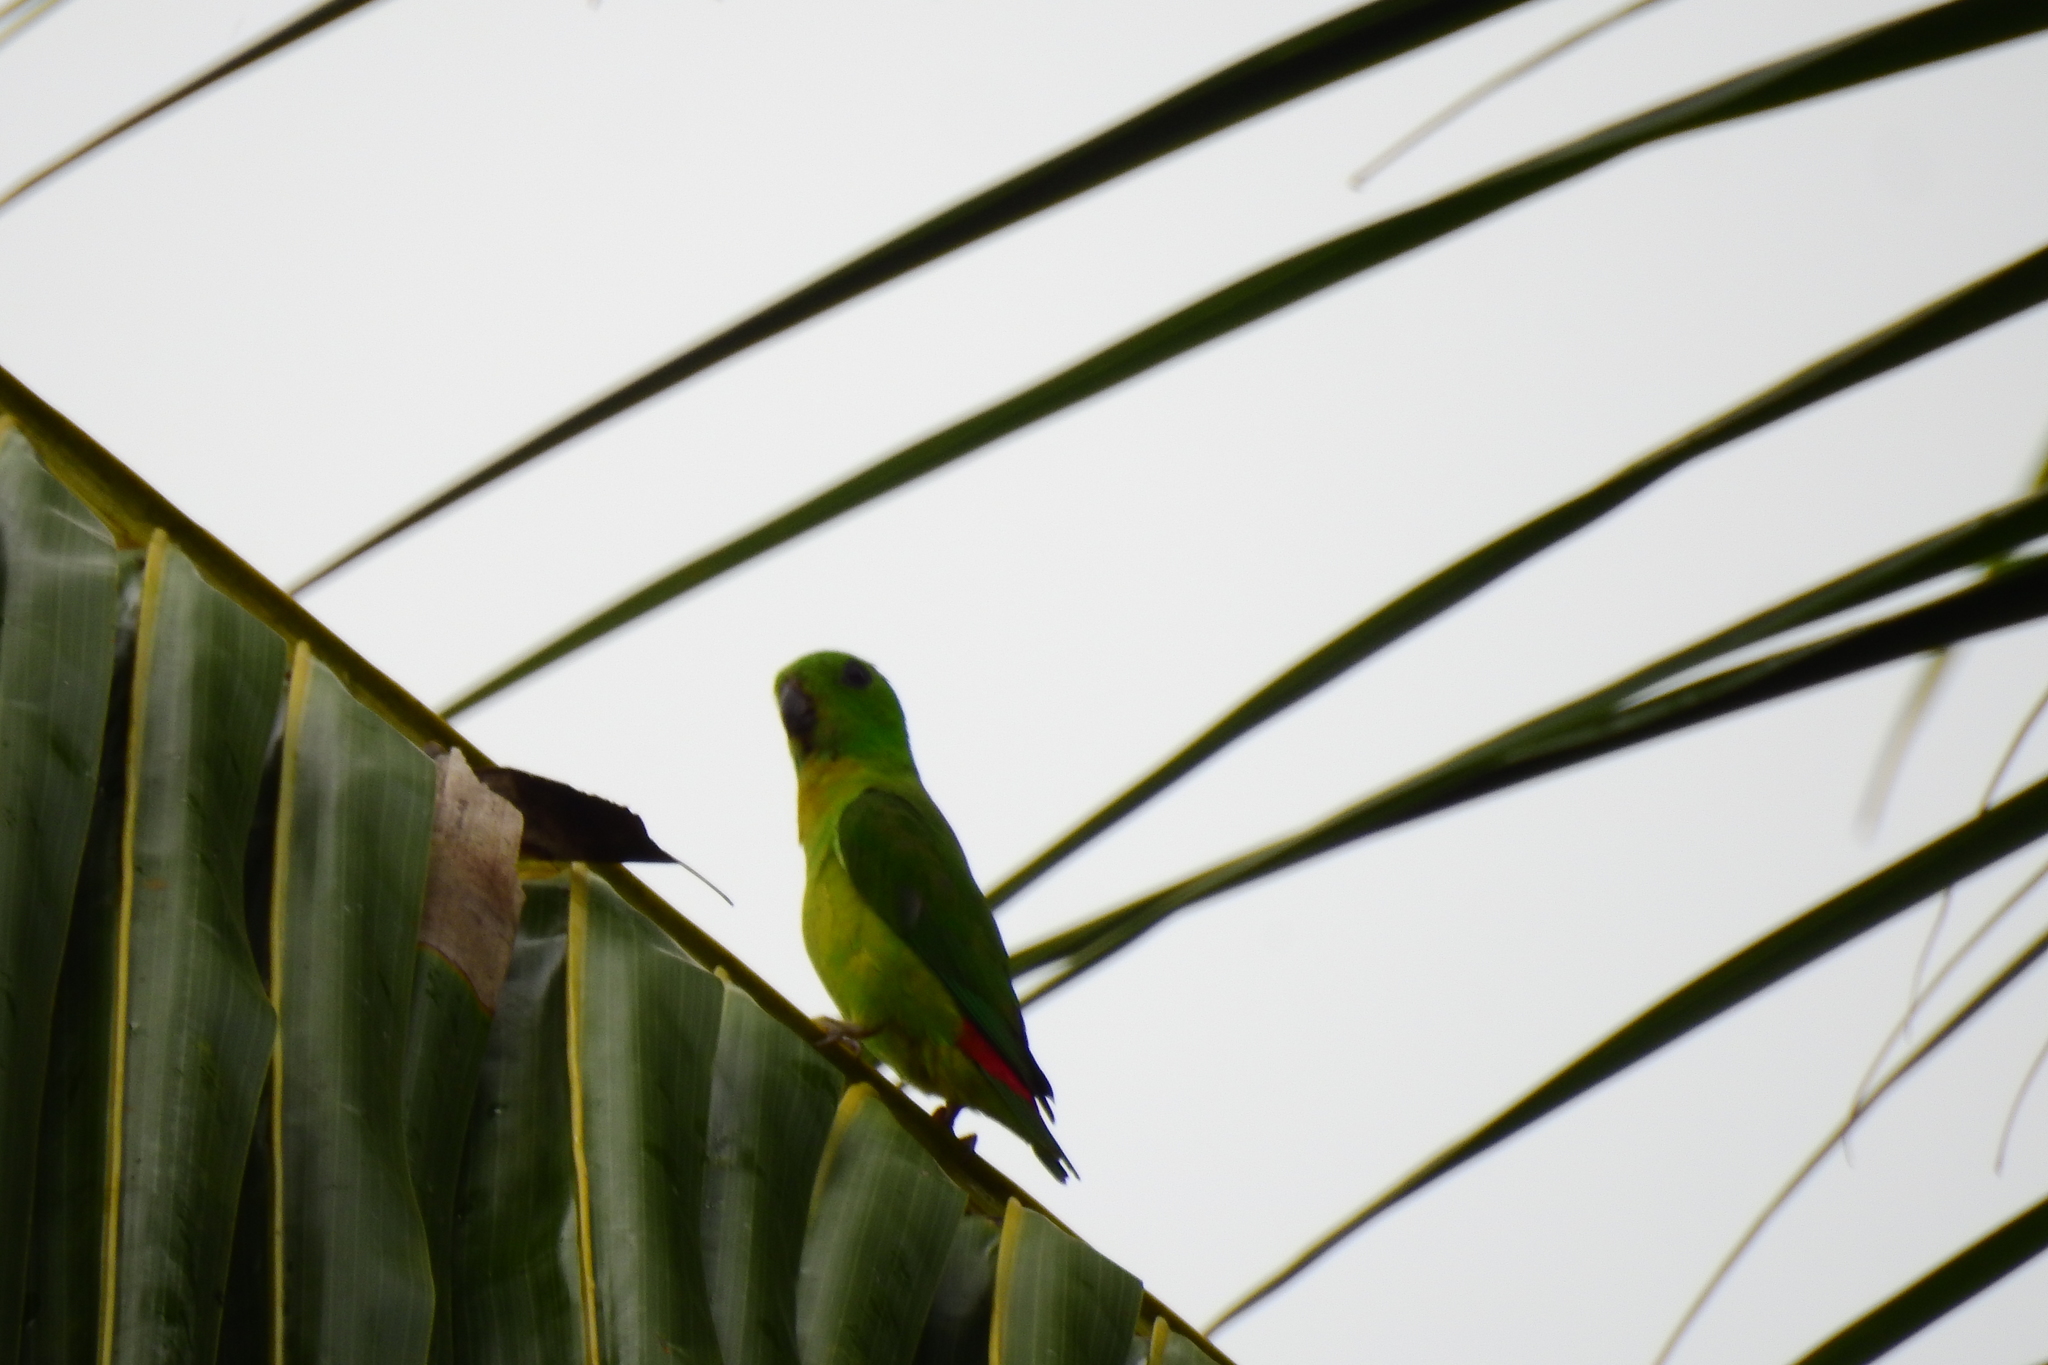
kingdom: Animalia
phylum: Chordata
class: Aves
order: Psittaciformes
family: Psittacidae
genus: Loriculus
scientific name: Loriculus galgulus
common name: Blue-crowned hanging parrot
